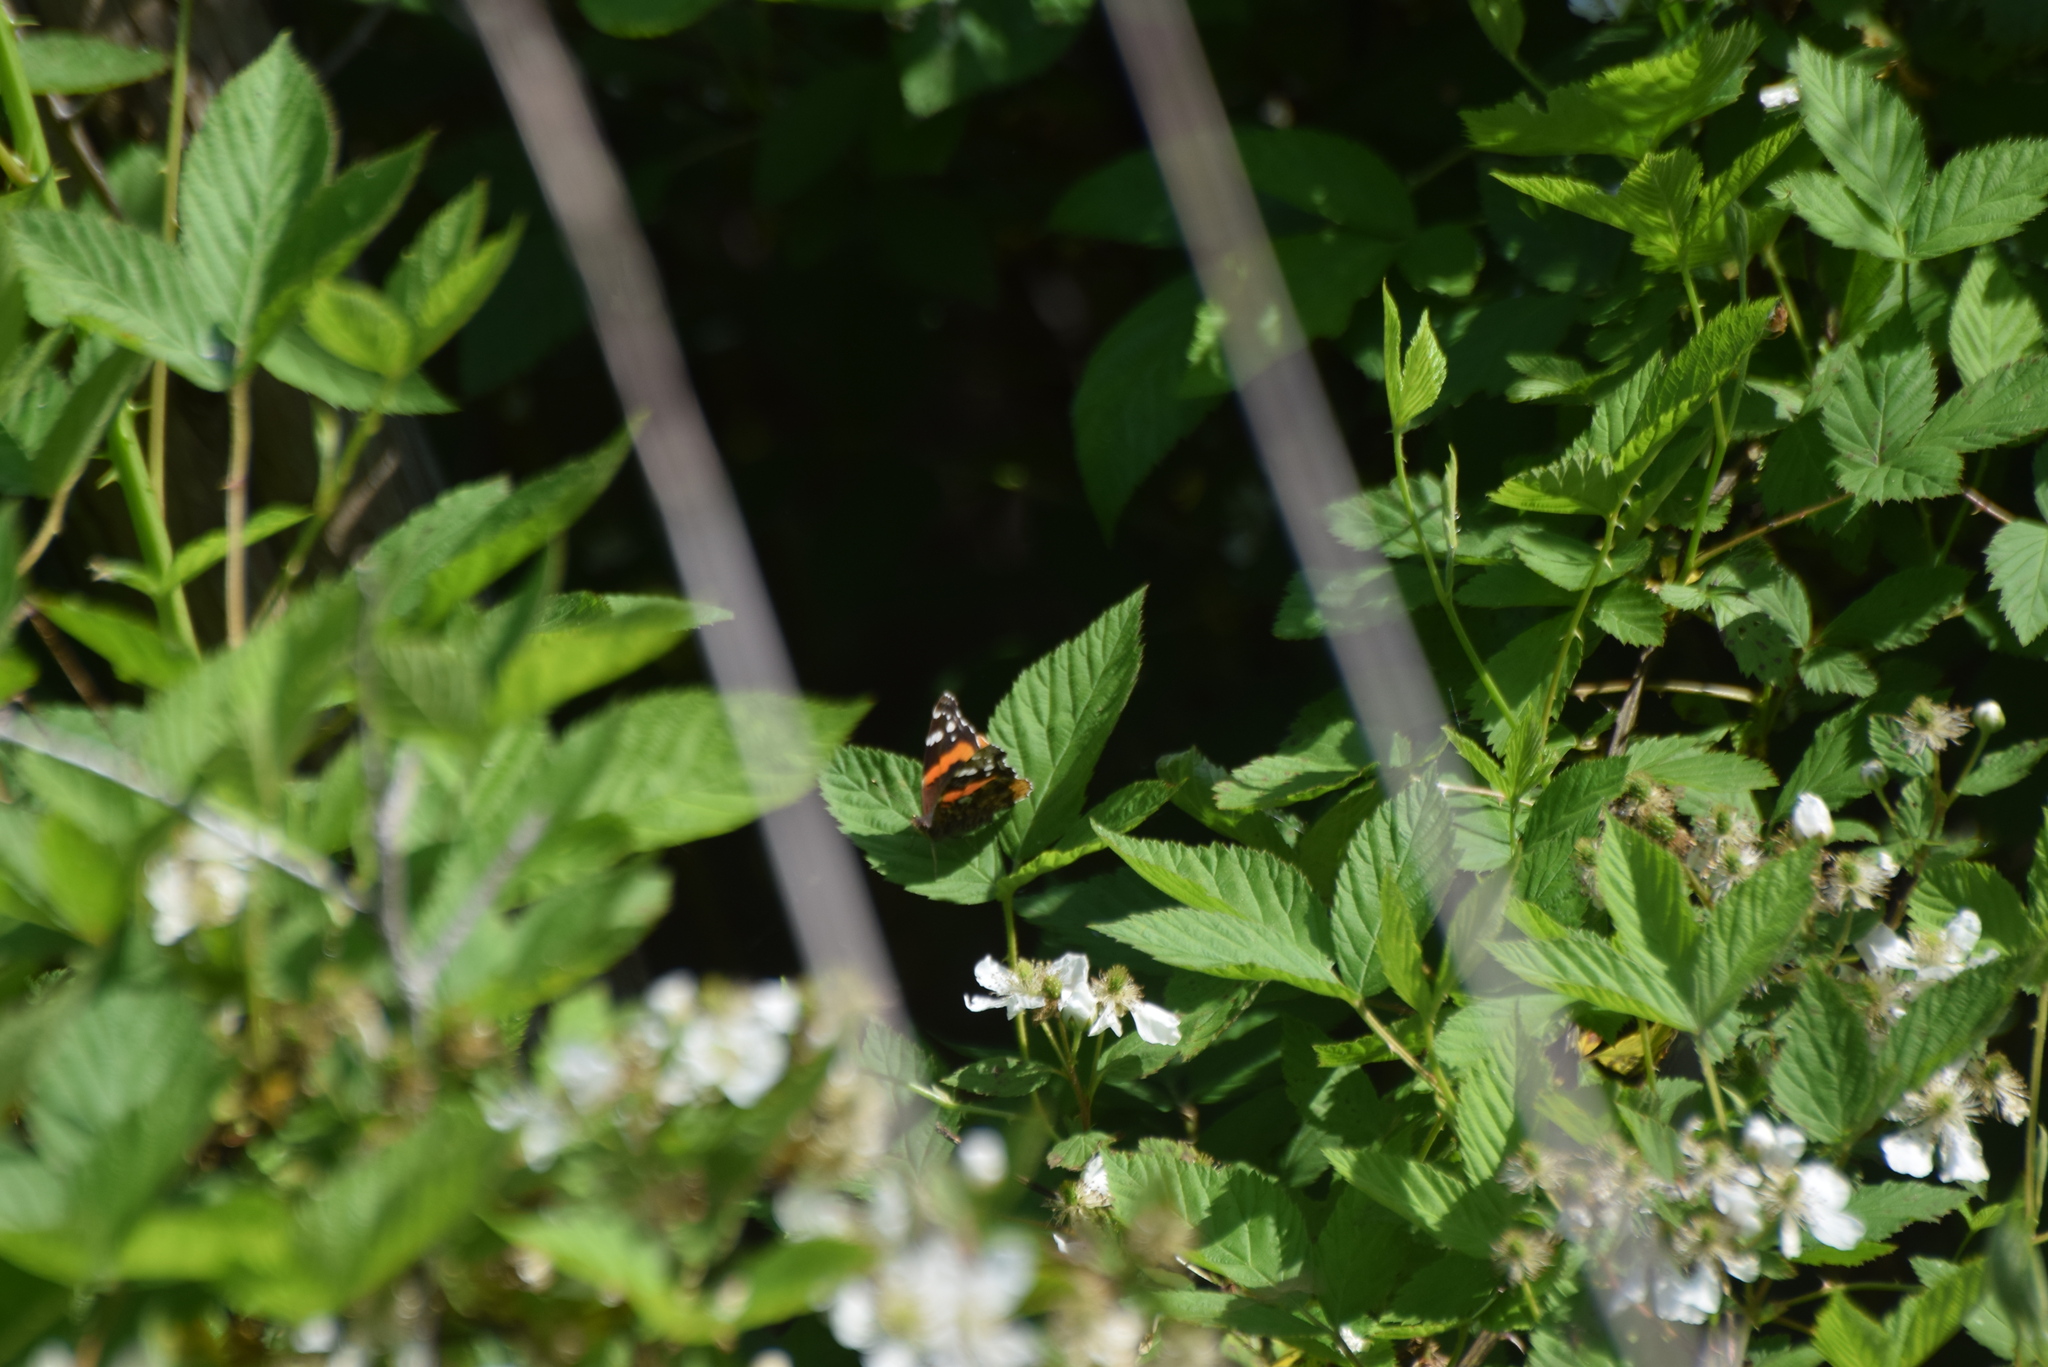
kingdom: Animalia
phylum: Arthropoda
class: Insecta
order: Lepidoptera
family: Nymphalidae
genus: Vanessa
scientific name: Vanessa atalanta
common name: Red admiral
